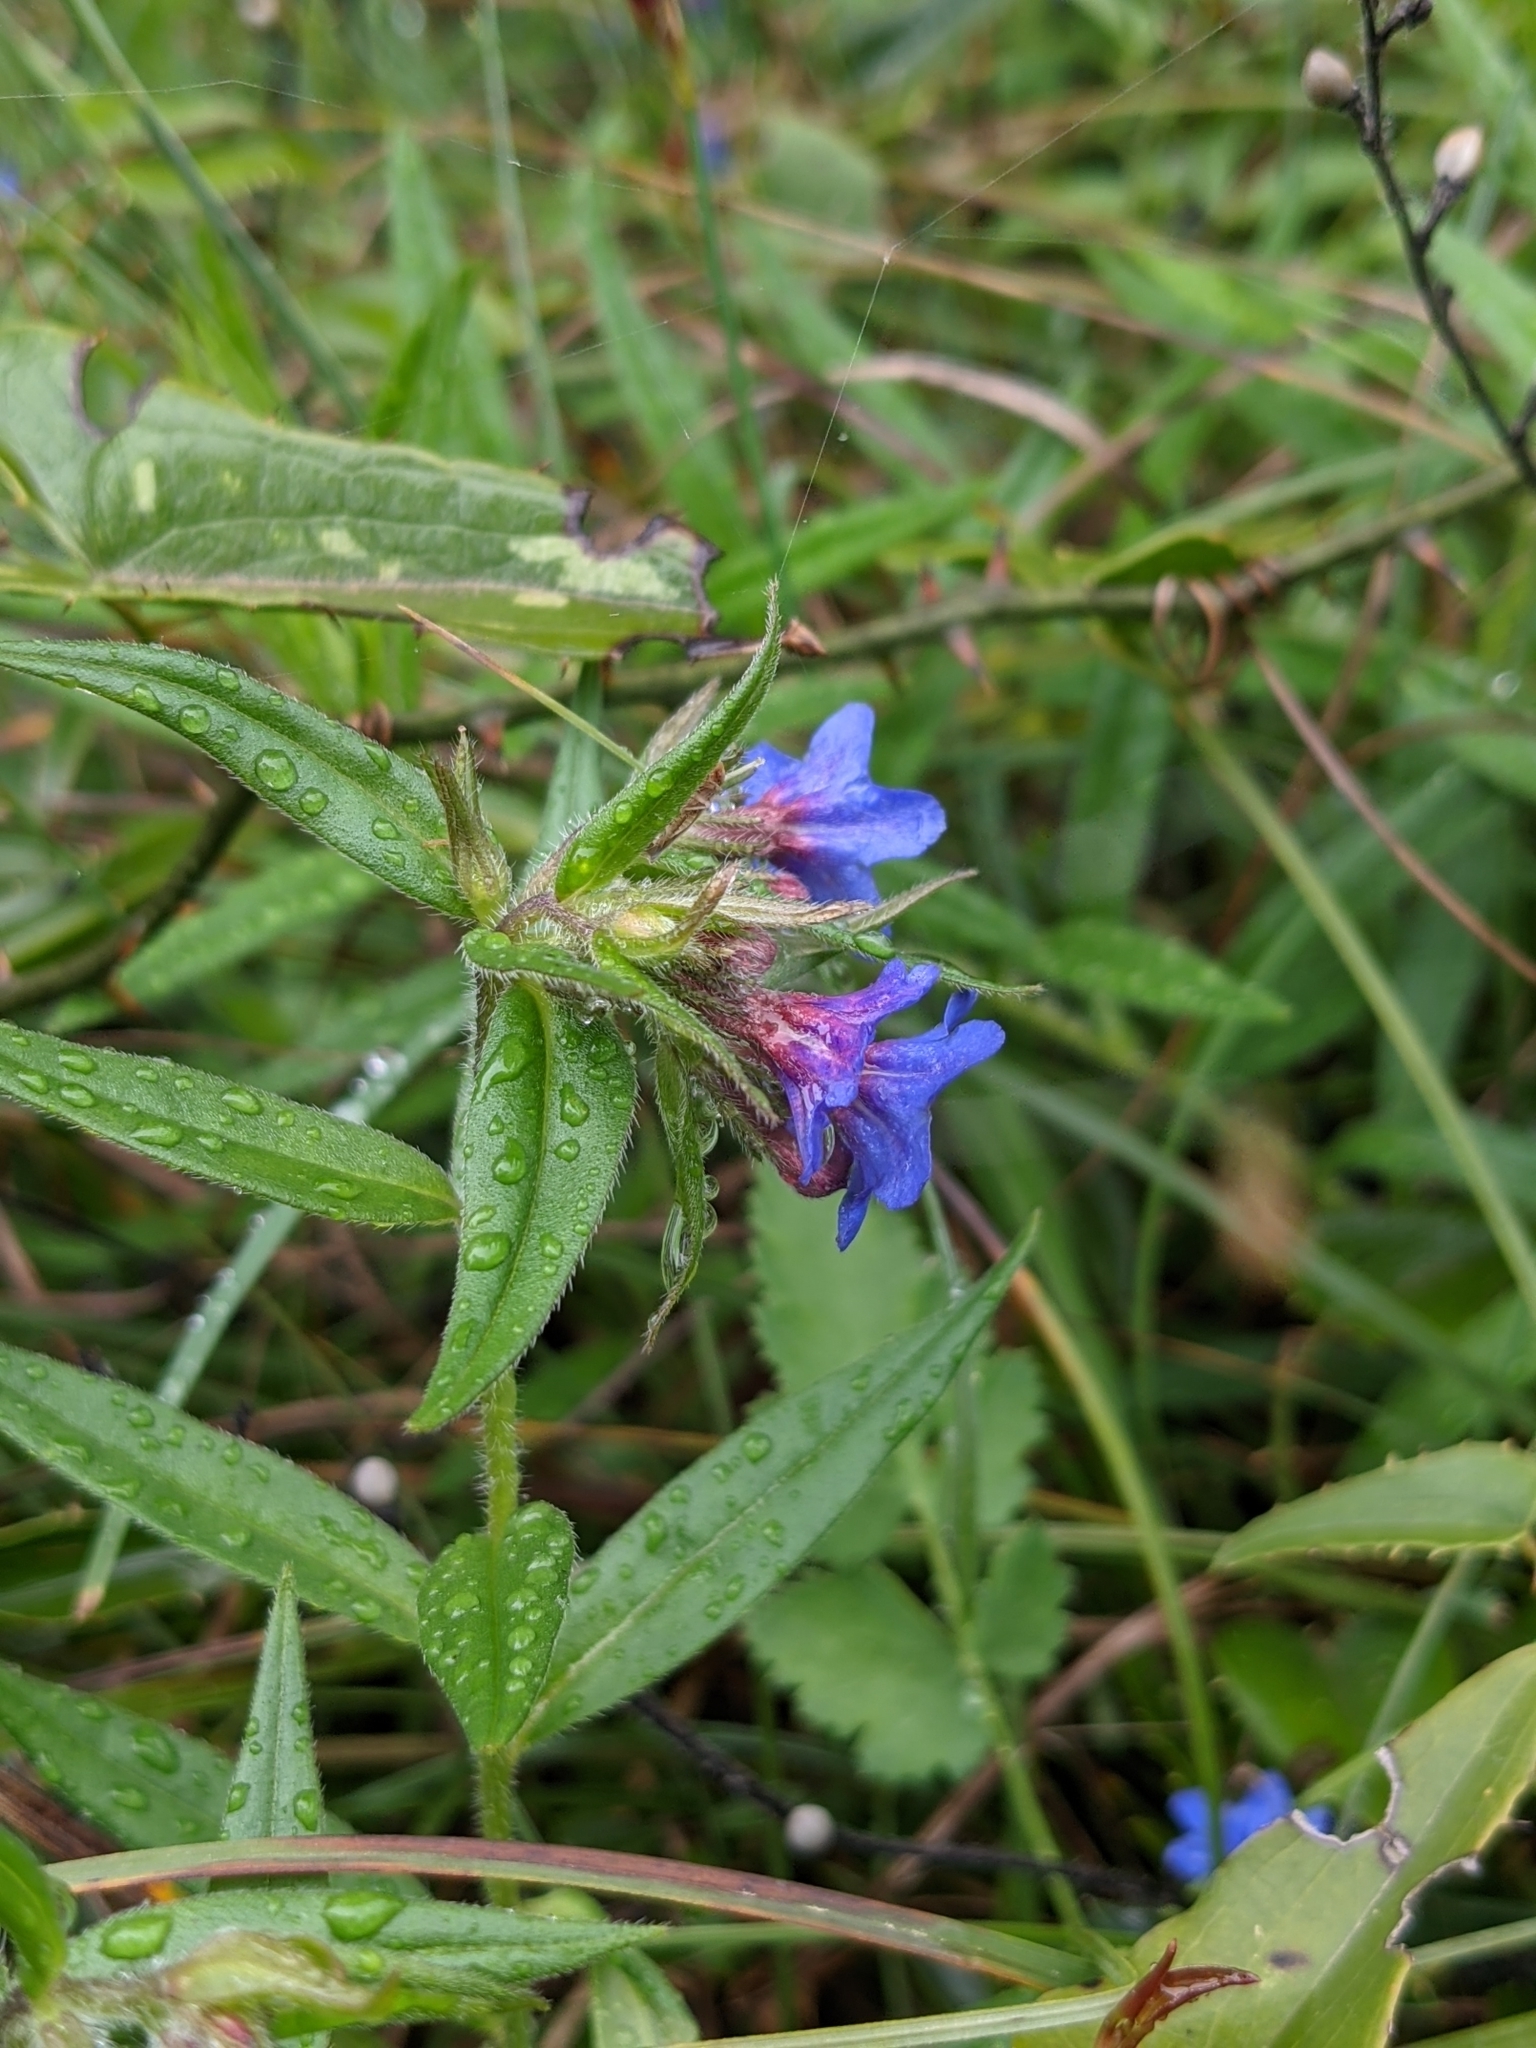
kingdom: Plantae
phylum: Tracheophyta
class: Magnoliopsida
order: Boraginales
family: Boraginaceae
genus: Aegonychon
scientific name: Aegonychon purpurocaeruleum
